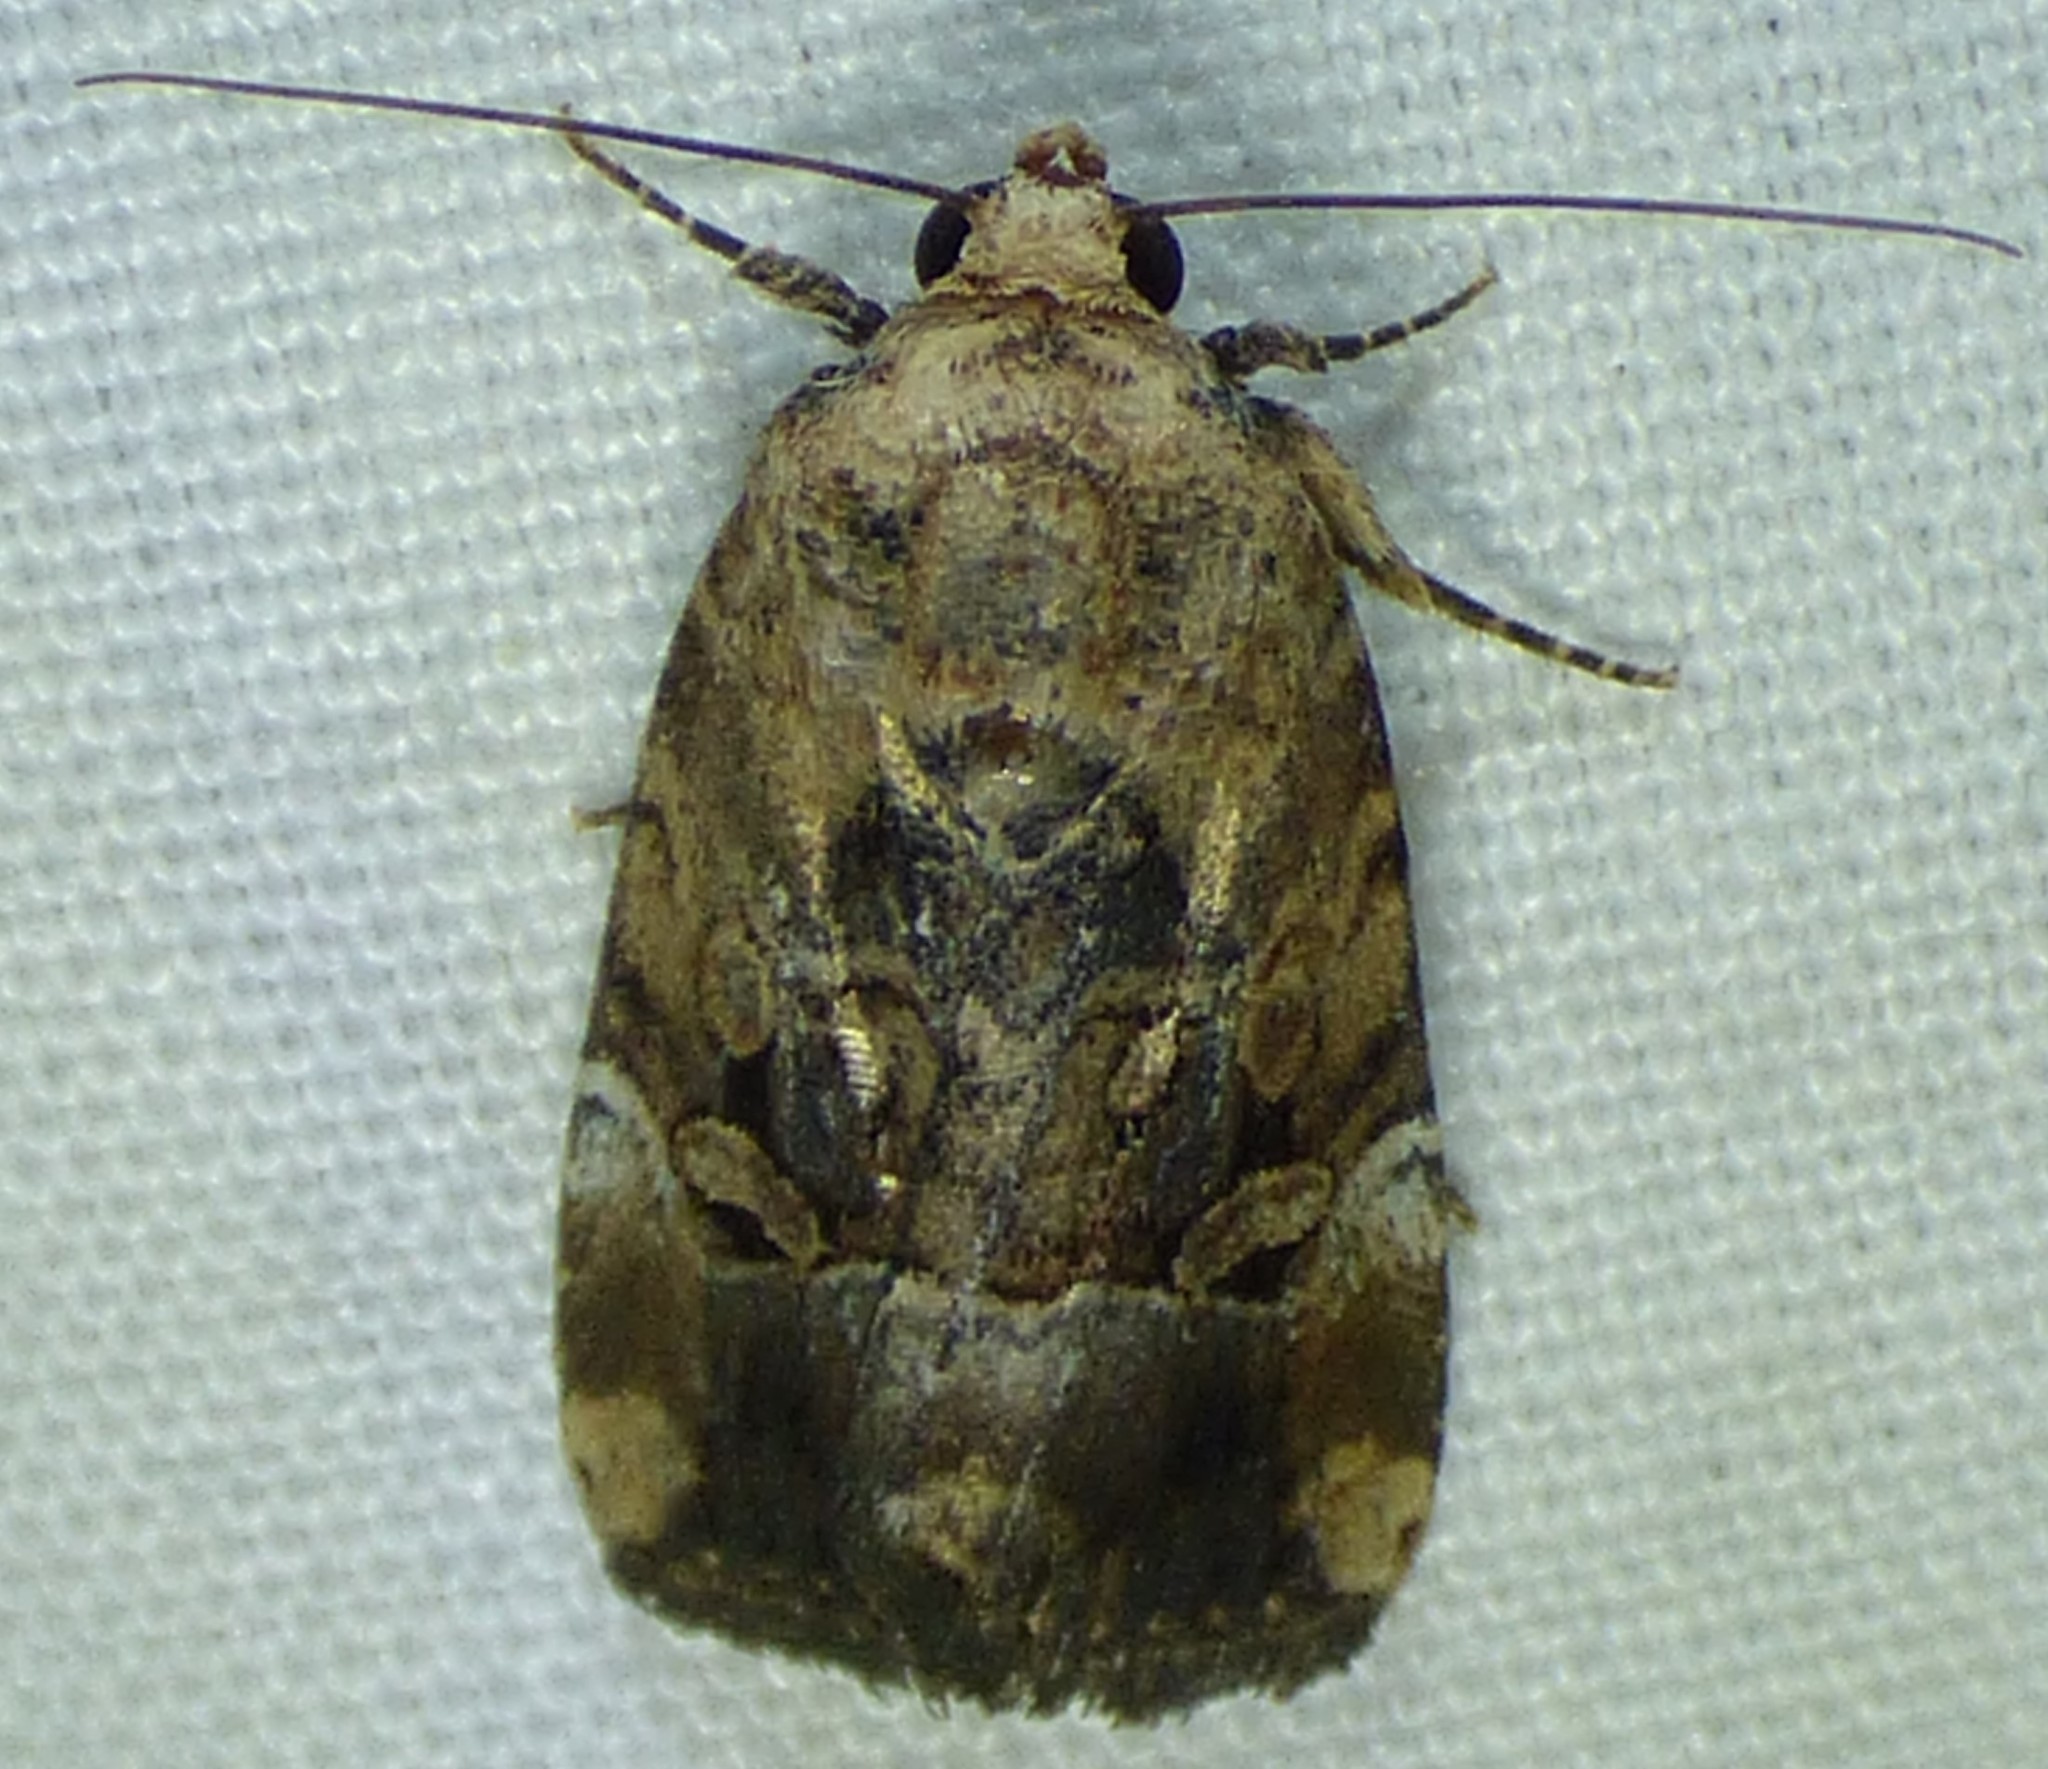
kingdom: Animalia
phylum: Arthropoda
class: Insecta
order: Lepidoptera
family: Noctuidae
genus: Elaphria
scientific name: Elaphria chalcedonia
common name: Chalcedony midget
